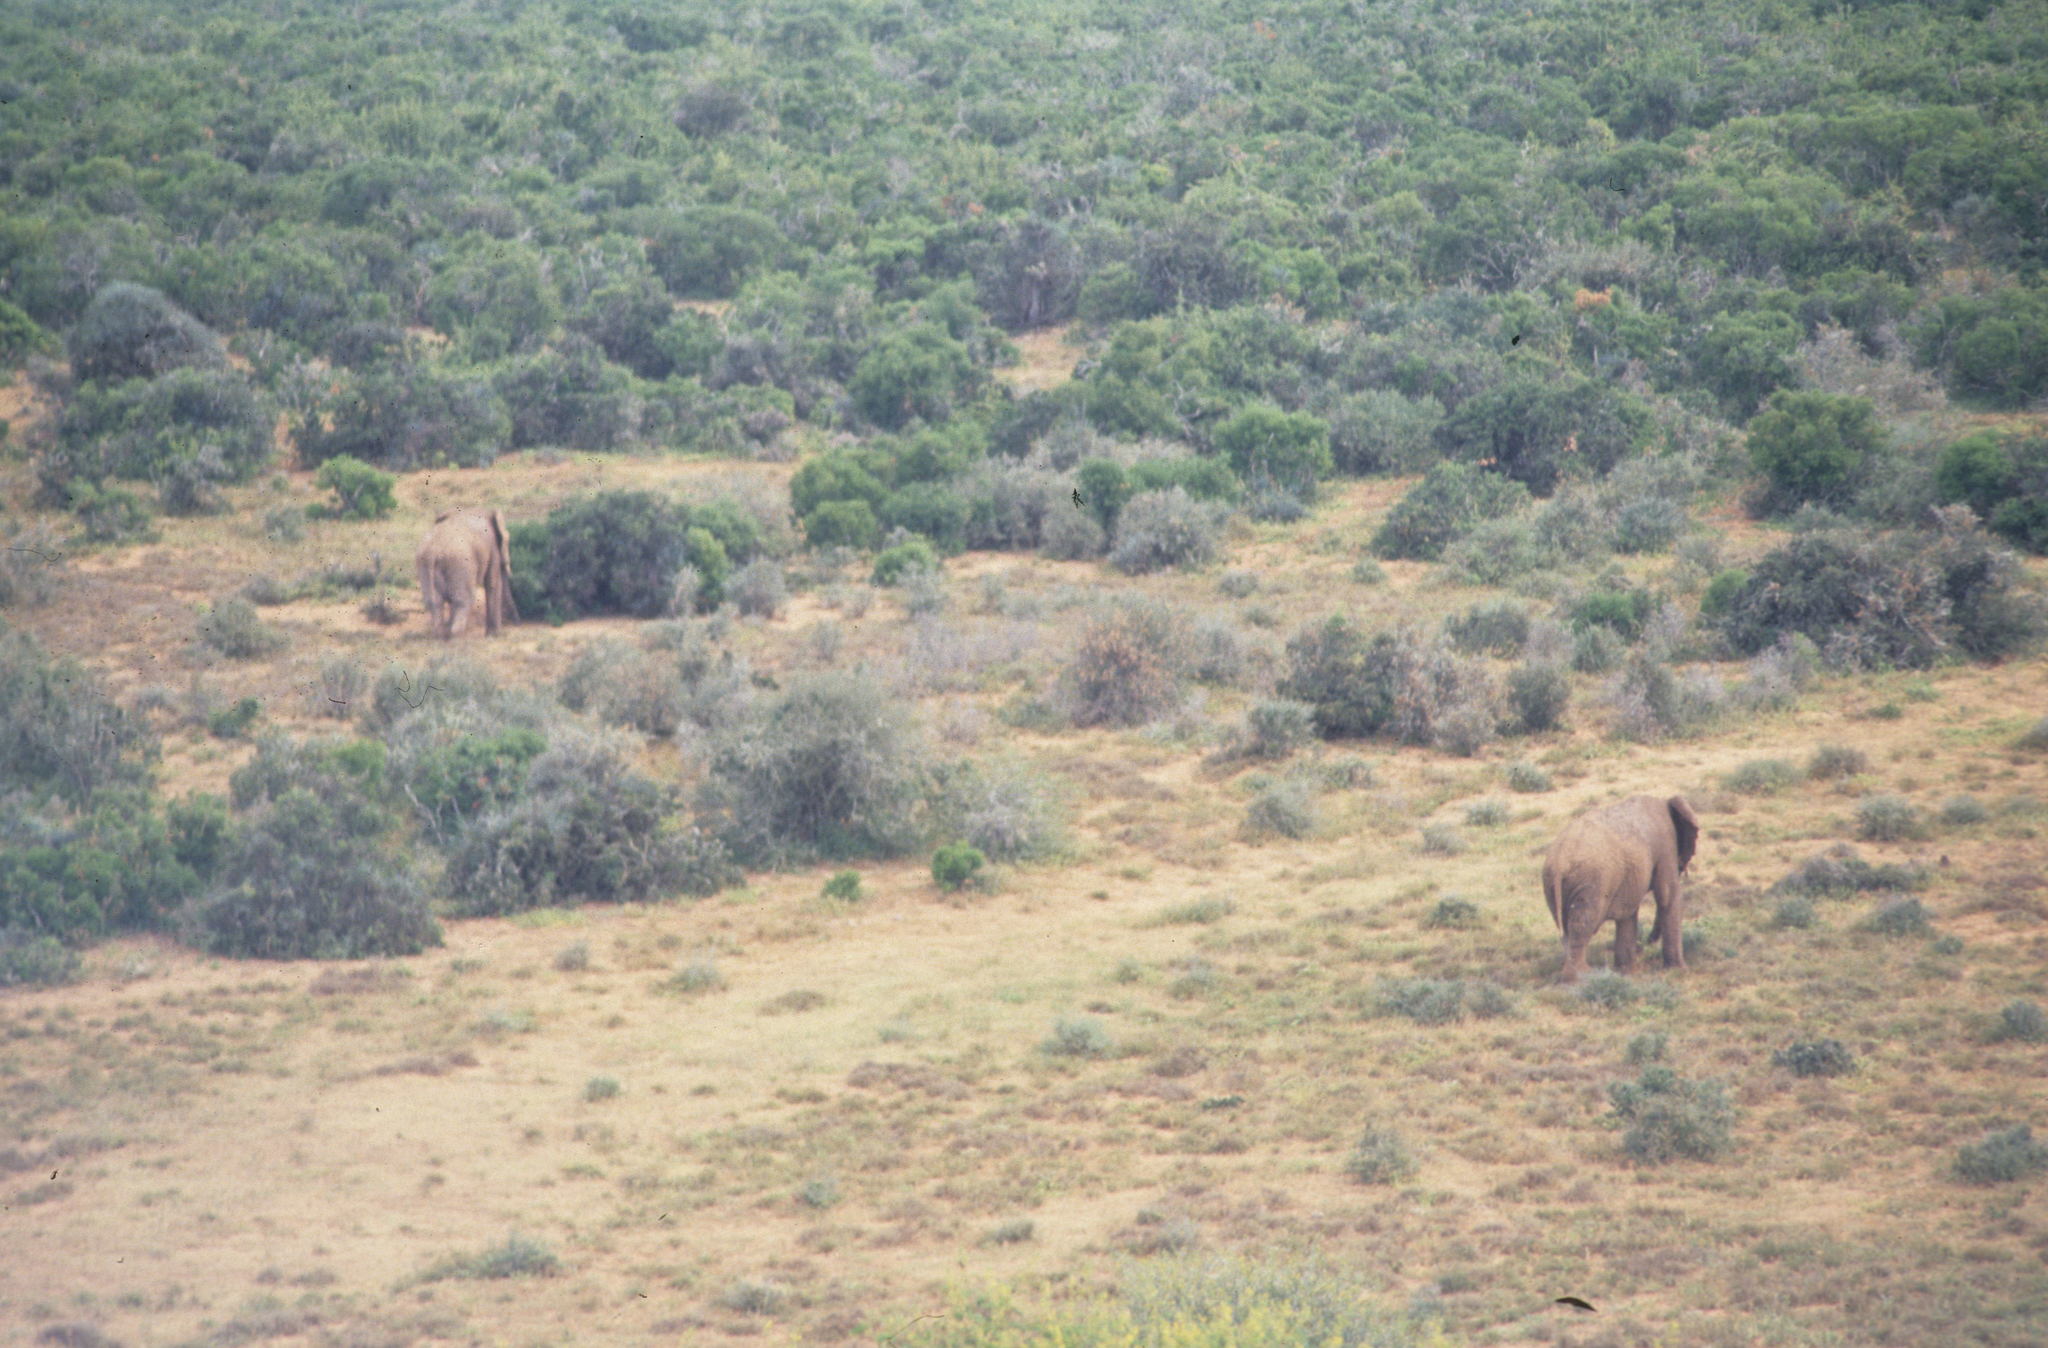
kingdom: Animalia
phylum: Chordata
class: Mammalia
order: Proboscidea
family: Elephantidae
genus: Loxodonta
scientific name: Loxodonta africana
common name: African elephant
